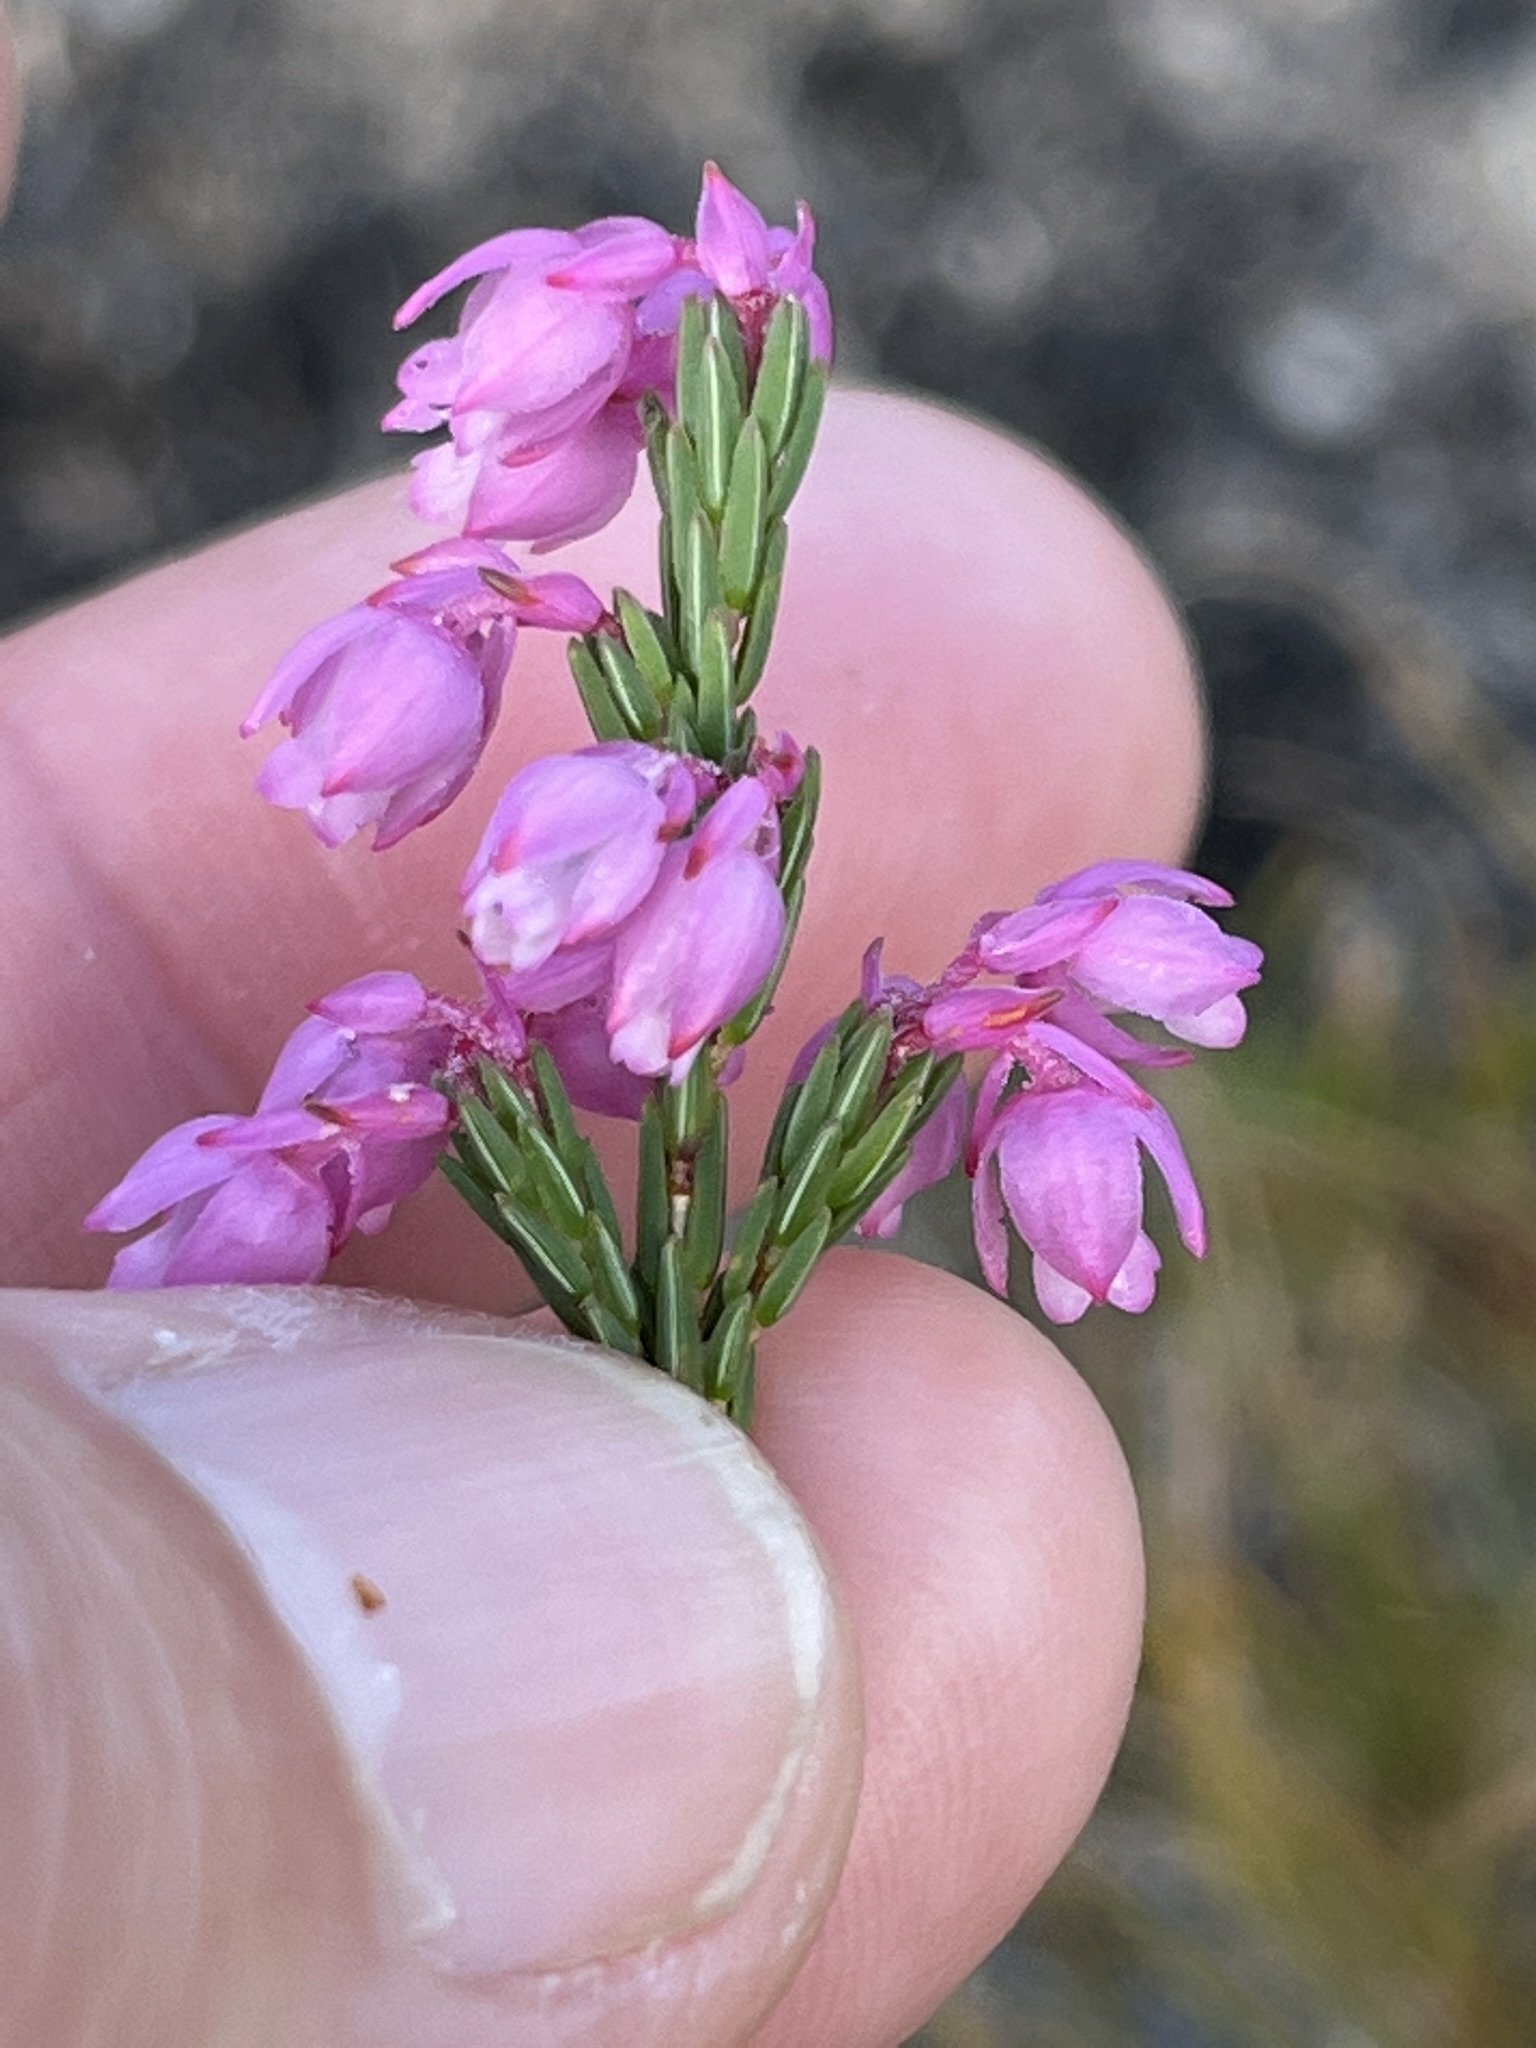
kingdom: Plantae
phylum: Tracheophyta
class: Magnoliopsida
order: Ericales
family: Ericaceae
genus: Erica
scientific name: Erica baccans
